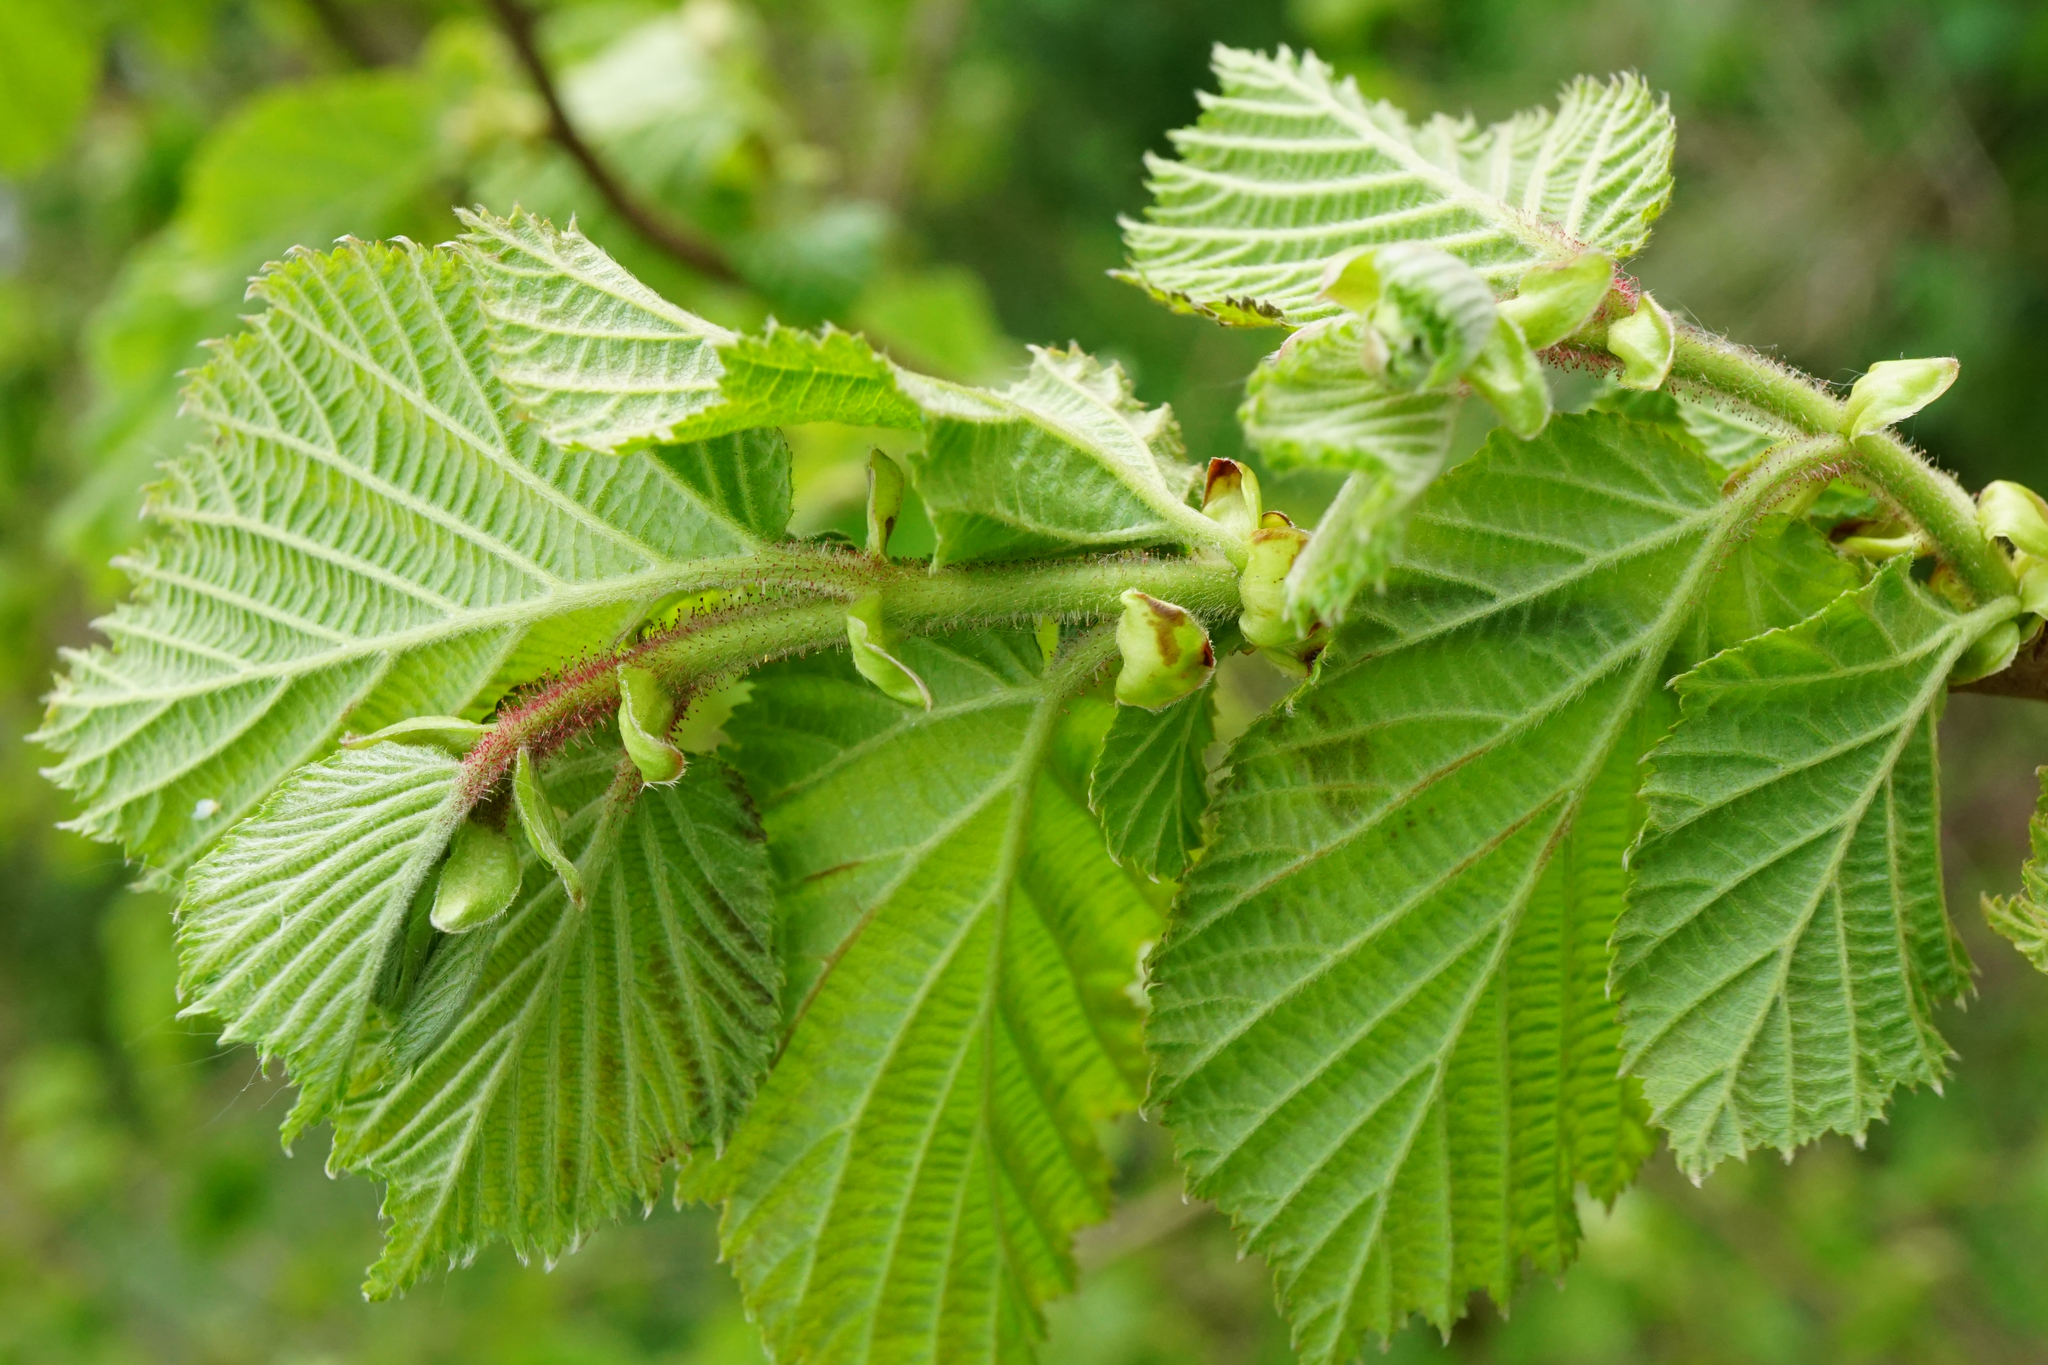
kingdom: Plantae
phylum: Tracheophyta
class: Magnoliopsida
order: Fagales
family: Betulaceae
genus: Corylus
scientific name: Corylus avellana
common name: European hazel
